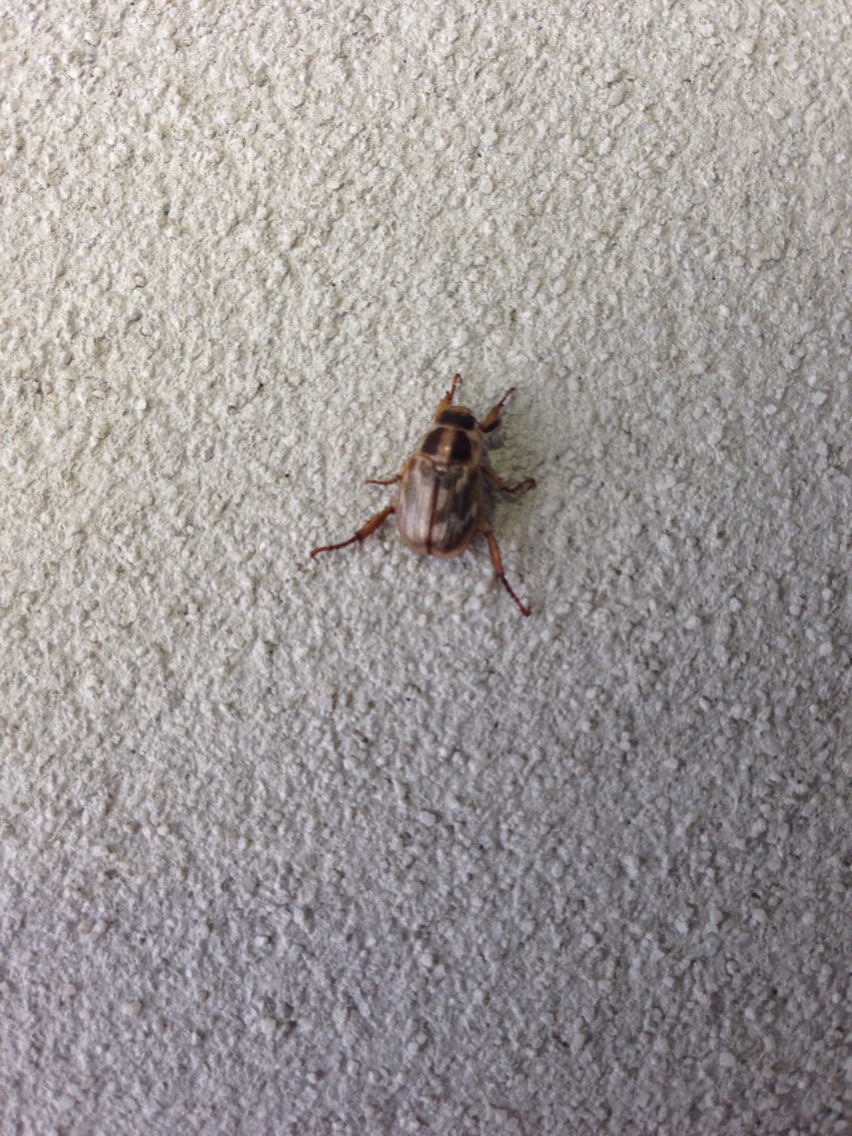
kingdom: Animalia
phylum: Arthropoda
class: Insecta
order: Coleoptera
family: Scarabaeidae
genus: Exomala
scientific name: Exomala orientalis
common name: Oriental beetle
